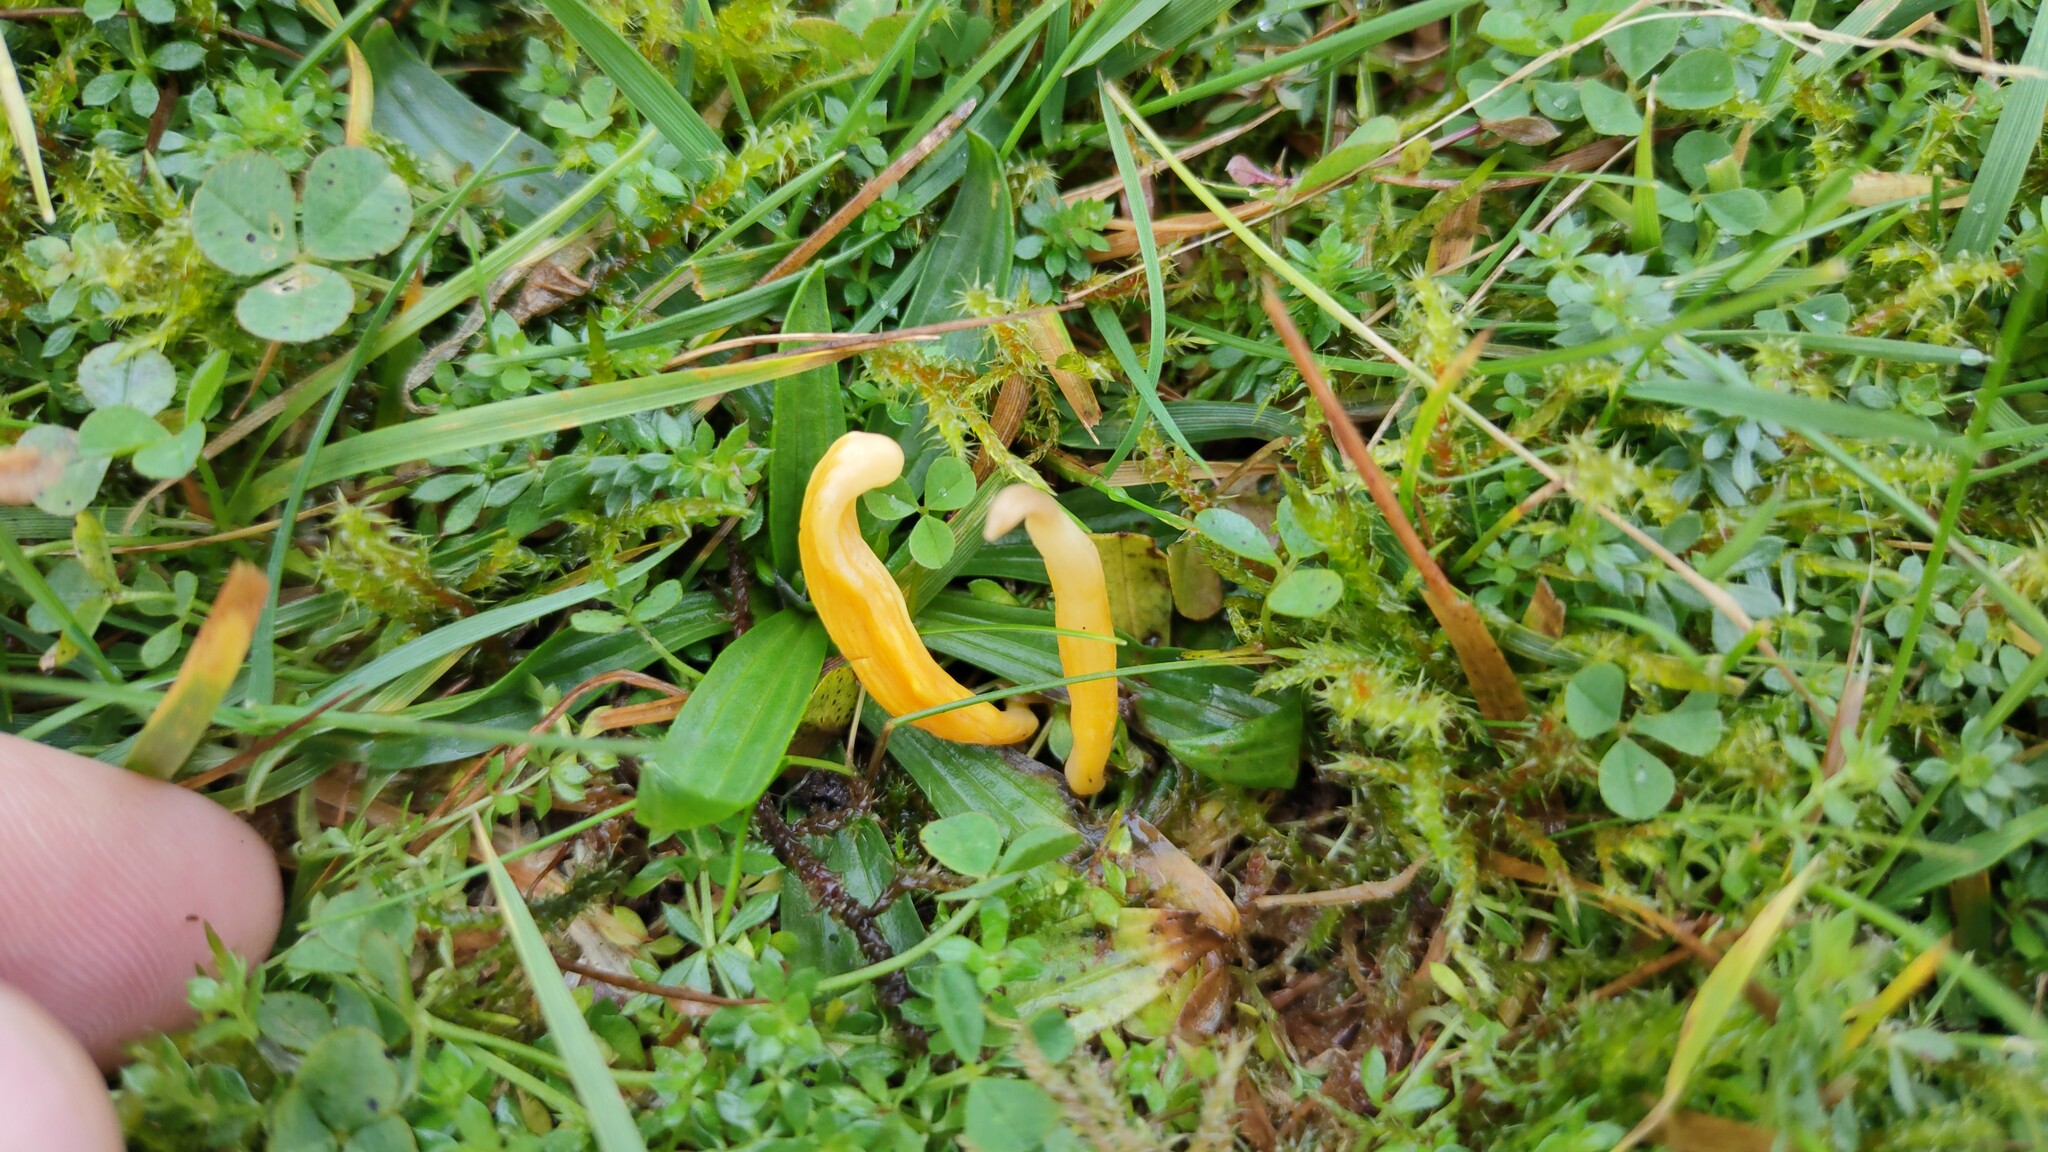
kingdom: Fungi
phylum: Basidiomycota
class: Agaricomycetes
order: Agaricales
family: Clavariaceae
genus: Clavulinopsis
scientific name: Clavulinopsis helvola
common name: Yellow club
